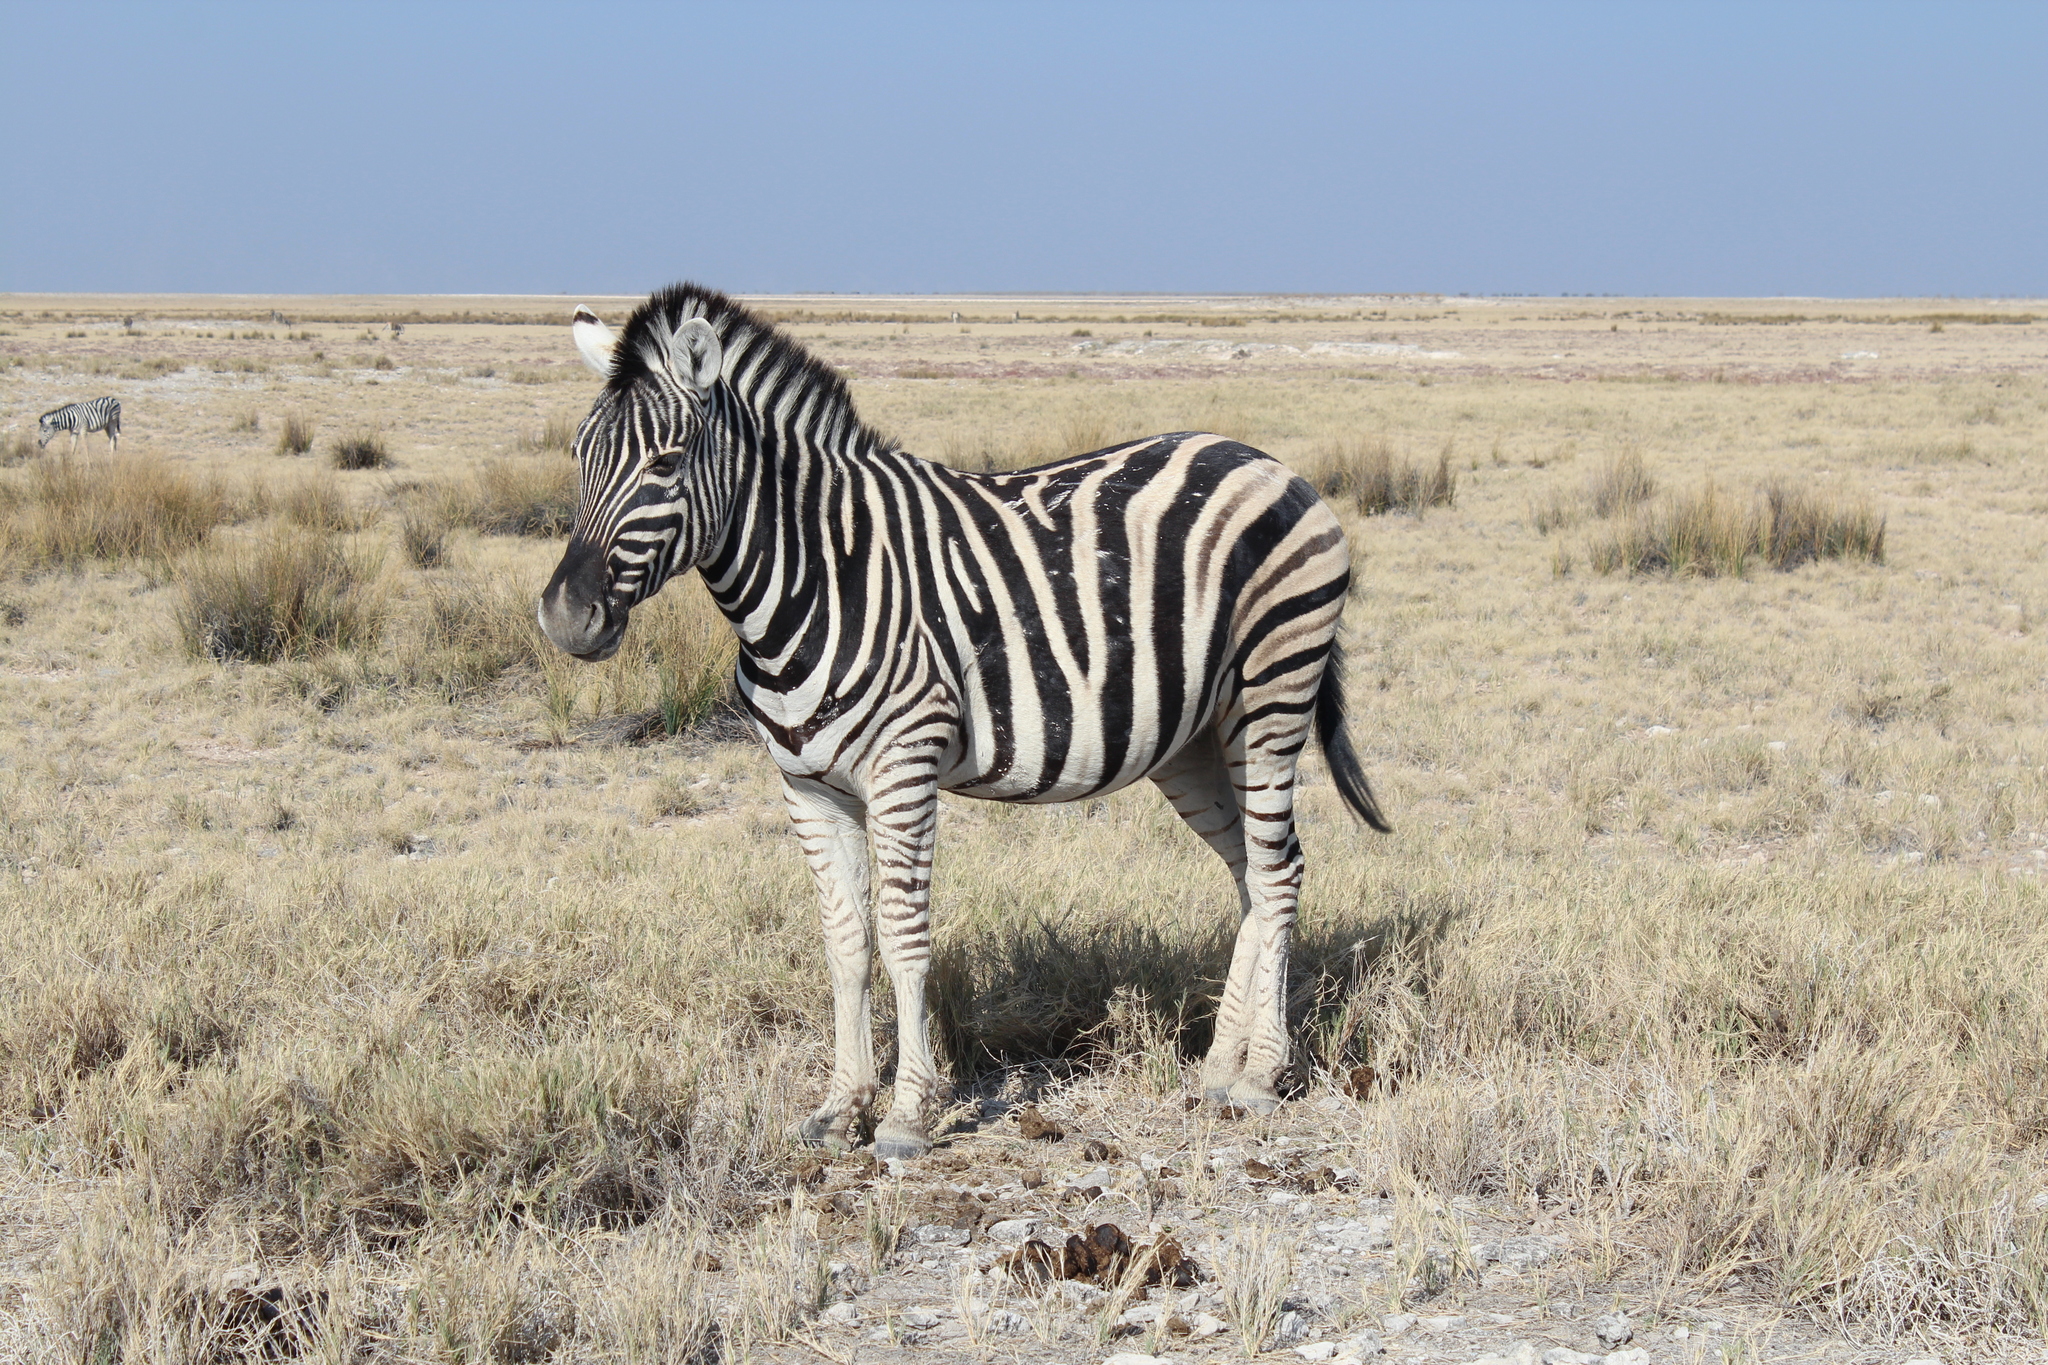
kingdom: Animalia
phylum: Chordata
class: Mammalia
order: Perissodactyla
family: Equidae
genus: Equus
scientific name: Equus quagga
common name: Plains zebra
